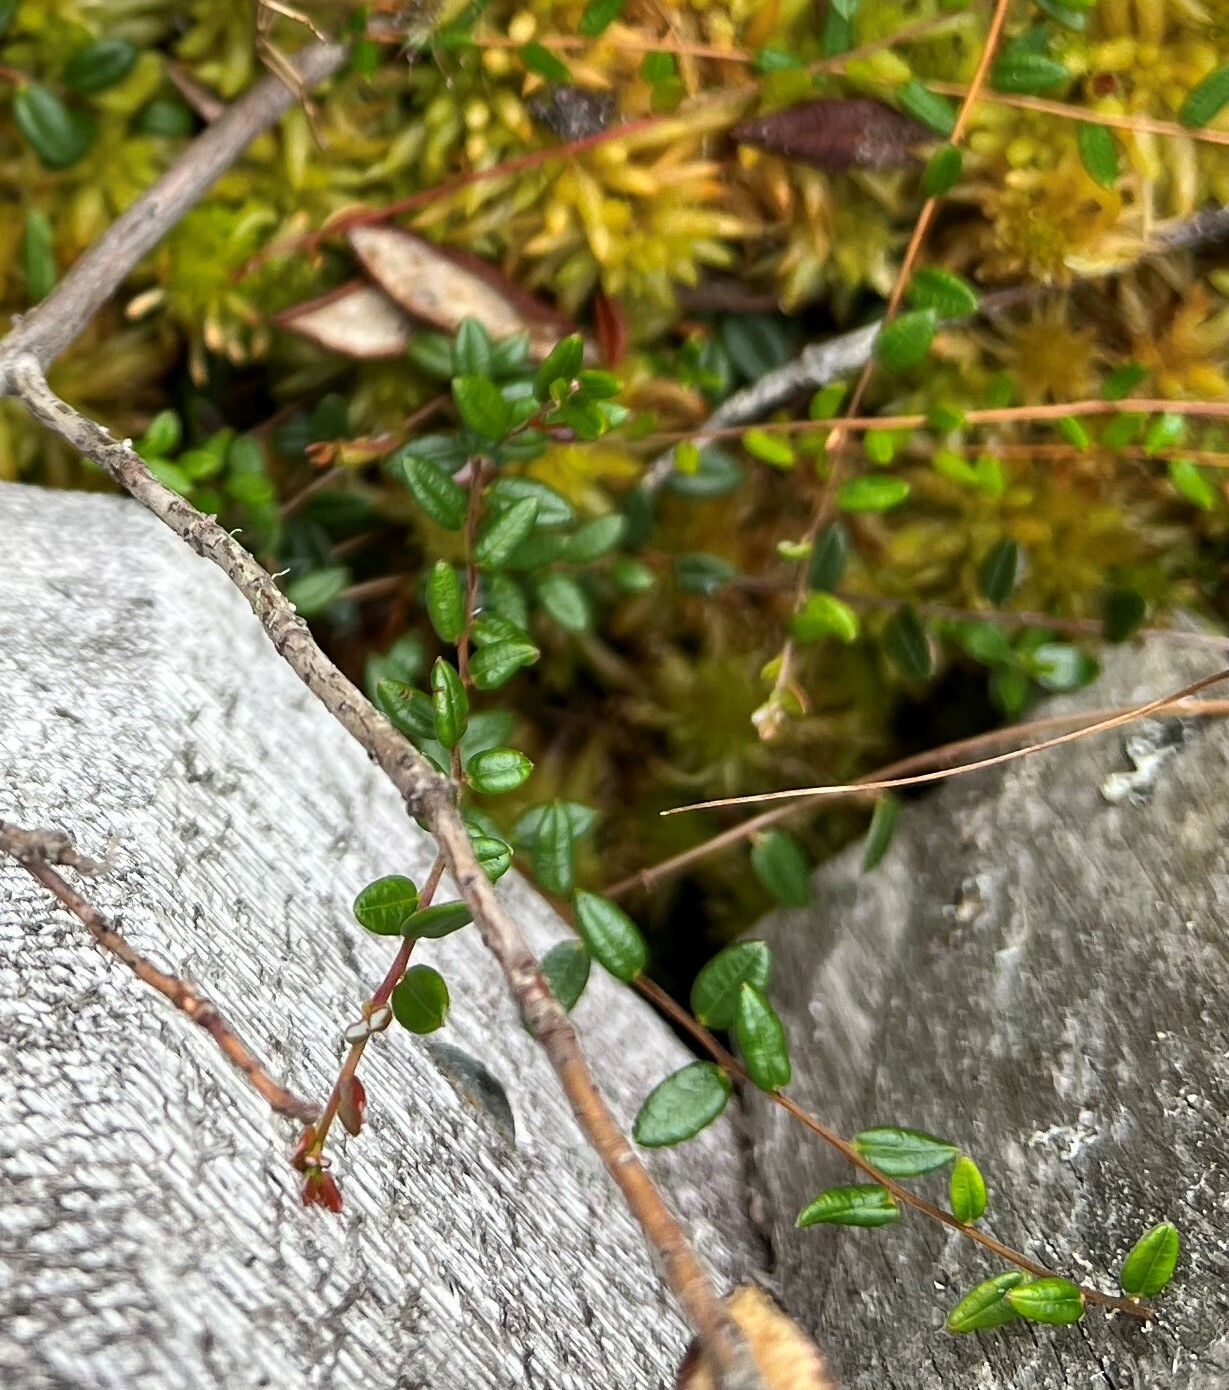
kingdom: Plantae
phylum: Tracheophyta
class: Magnoliopsida
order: Ericales
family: Ericaceae
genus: Vaccinium
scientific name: Vaccinium oxycoccos
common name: Cranberry
